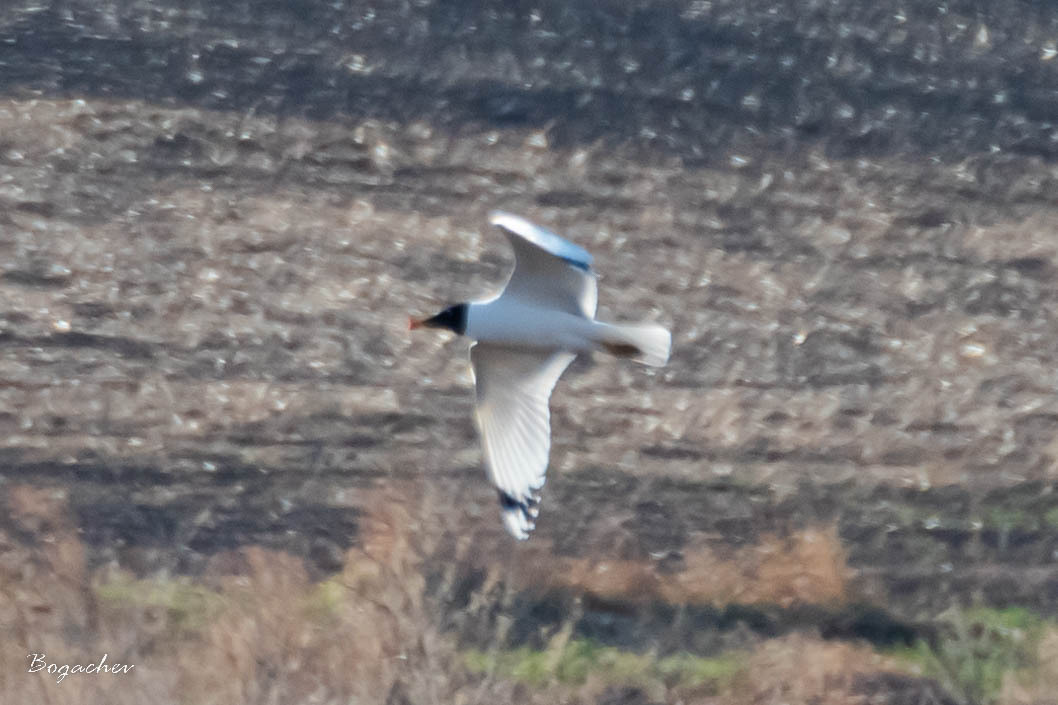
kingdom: Animalia
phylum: Chordata
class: Aves
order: Charadriiformes
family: Laridae
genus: Ichthyaetus
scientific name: Ichthyaetus ichthyaetus
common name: Pallas's gull
